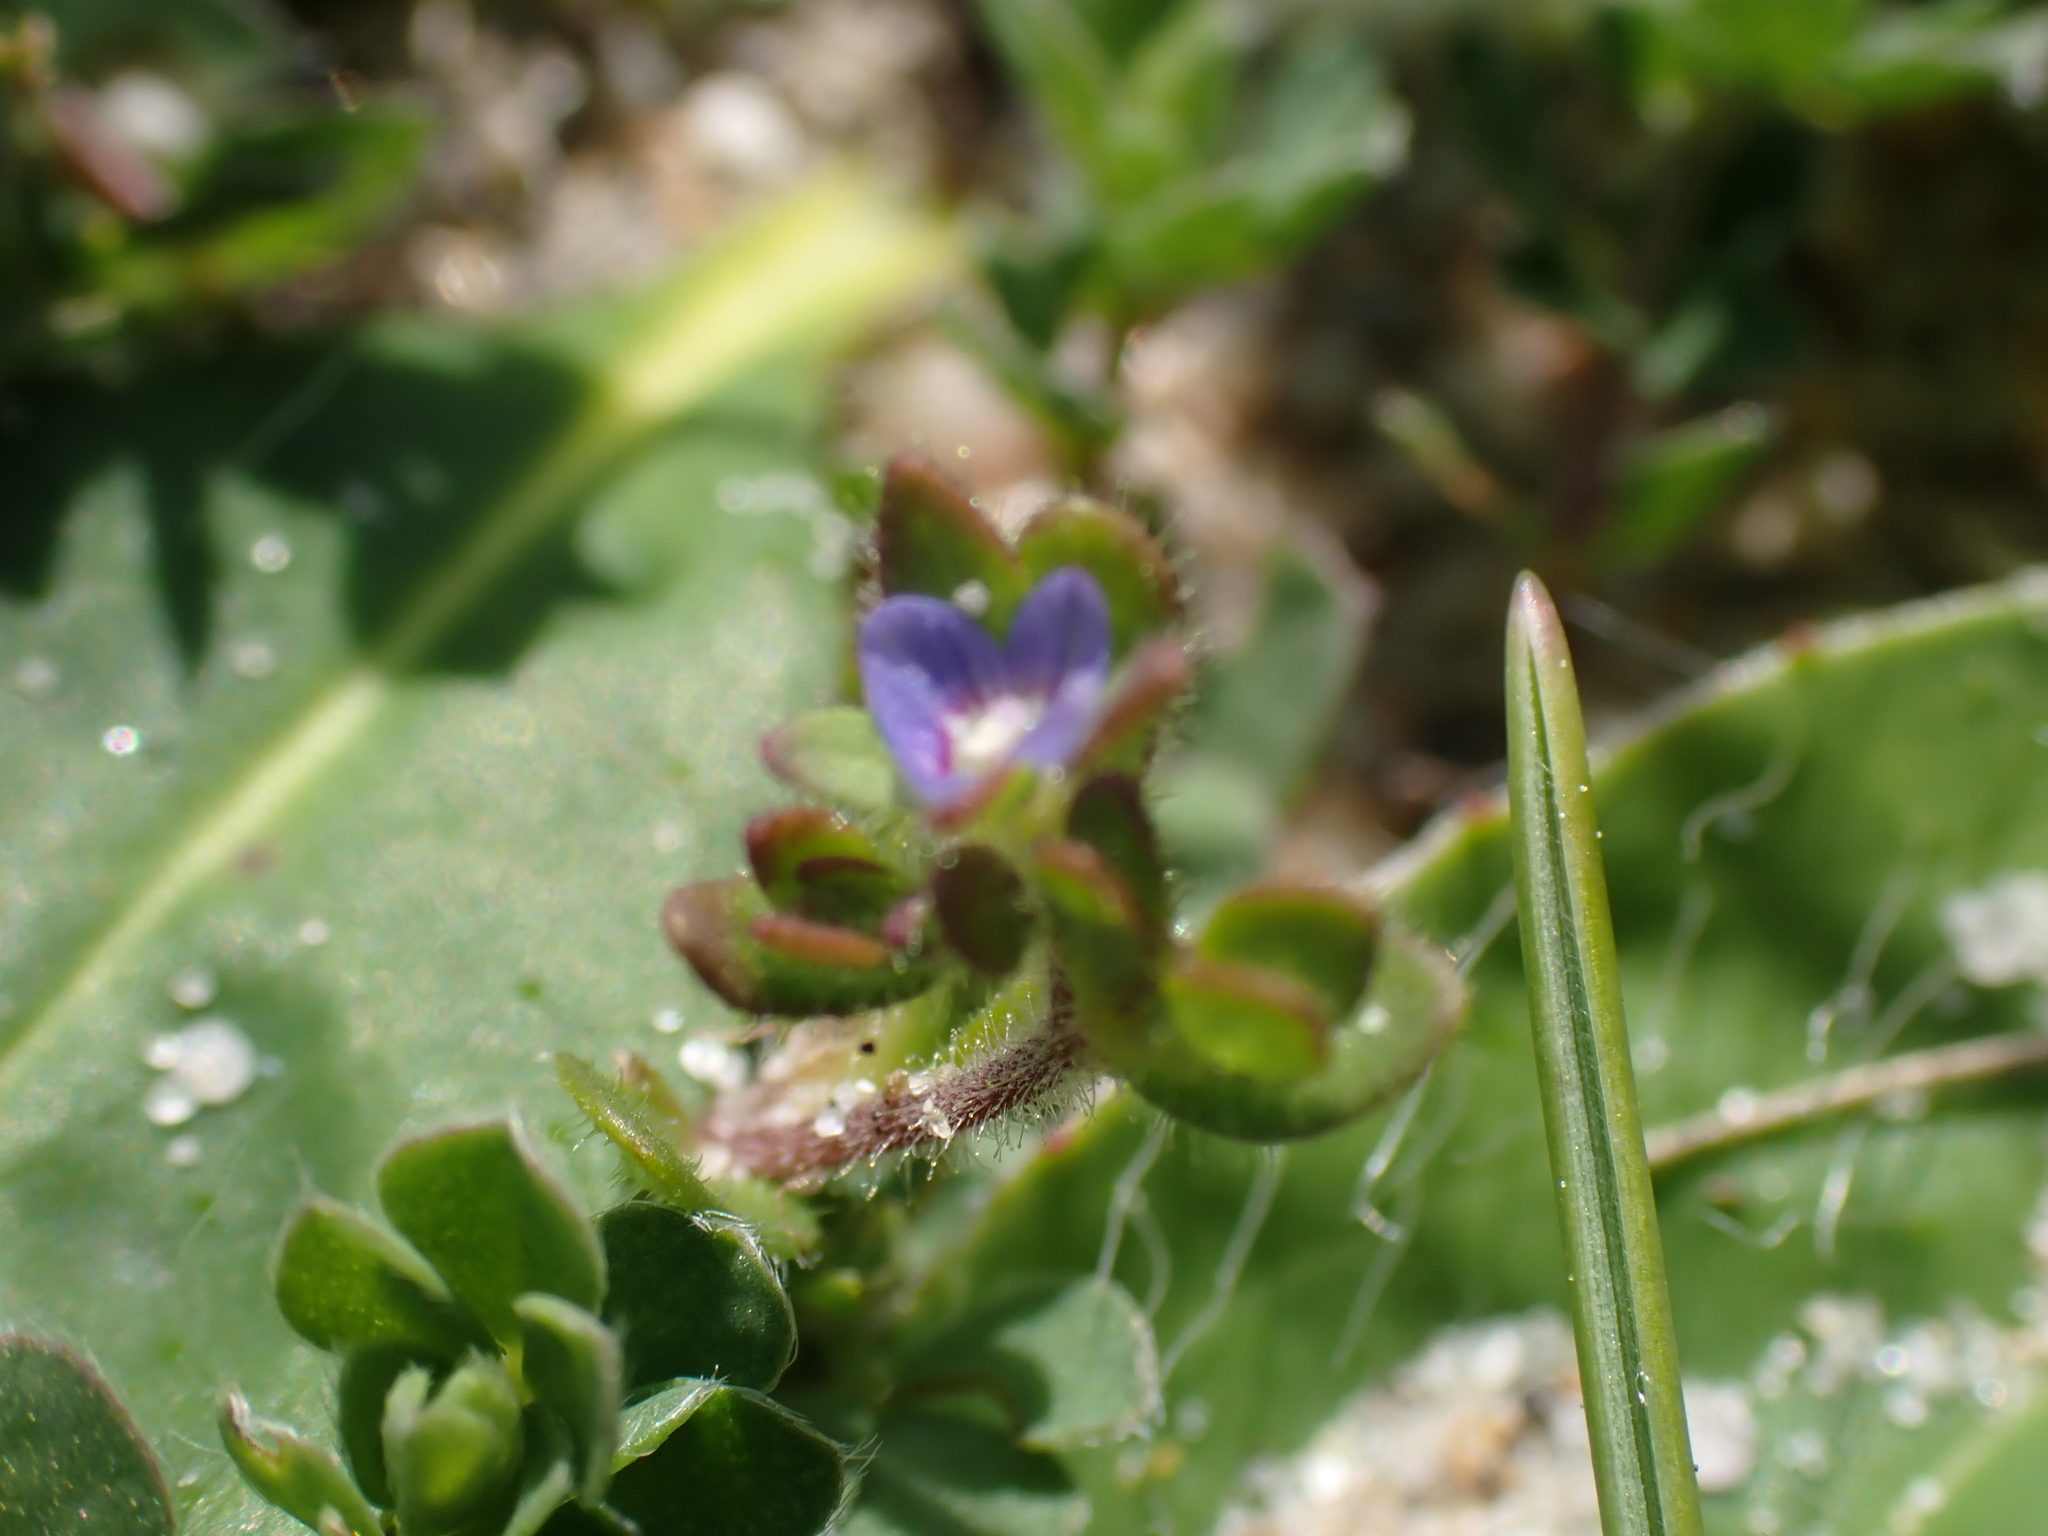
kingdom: Plantae
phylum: Tracheophyta
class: Magnoliopsida
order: Lamiales
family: Plantaginaceae
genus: Veronica
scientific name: Veronica arvensis
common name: Corn speedwell
